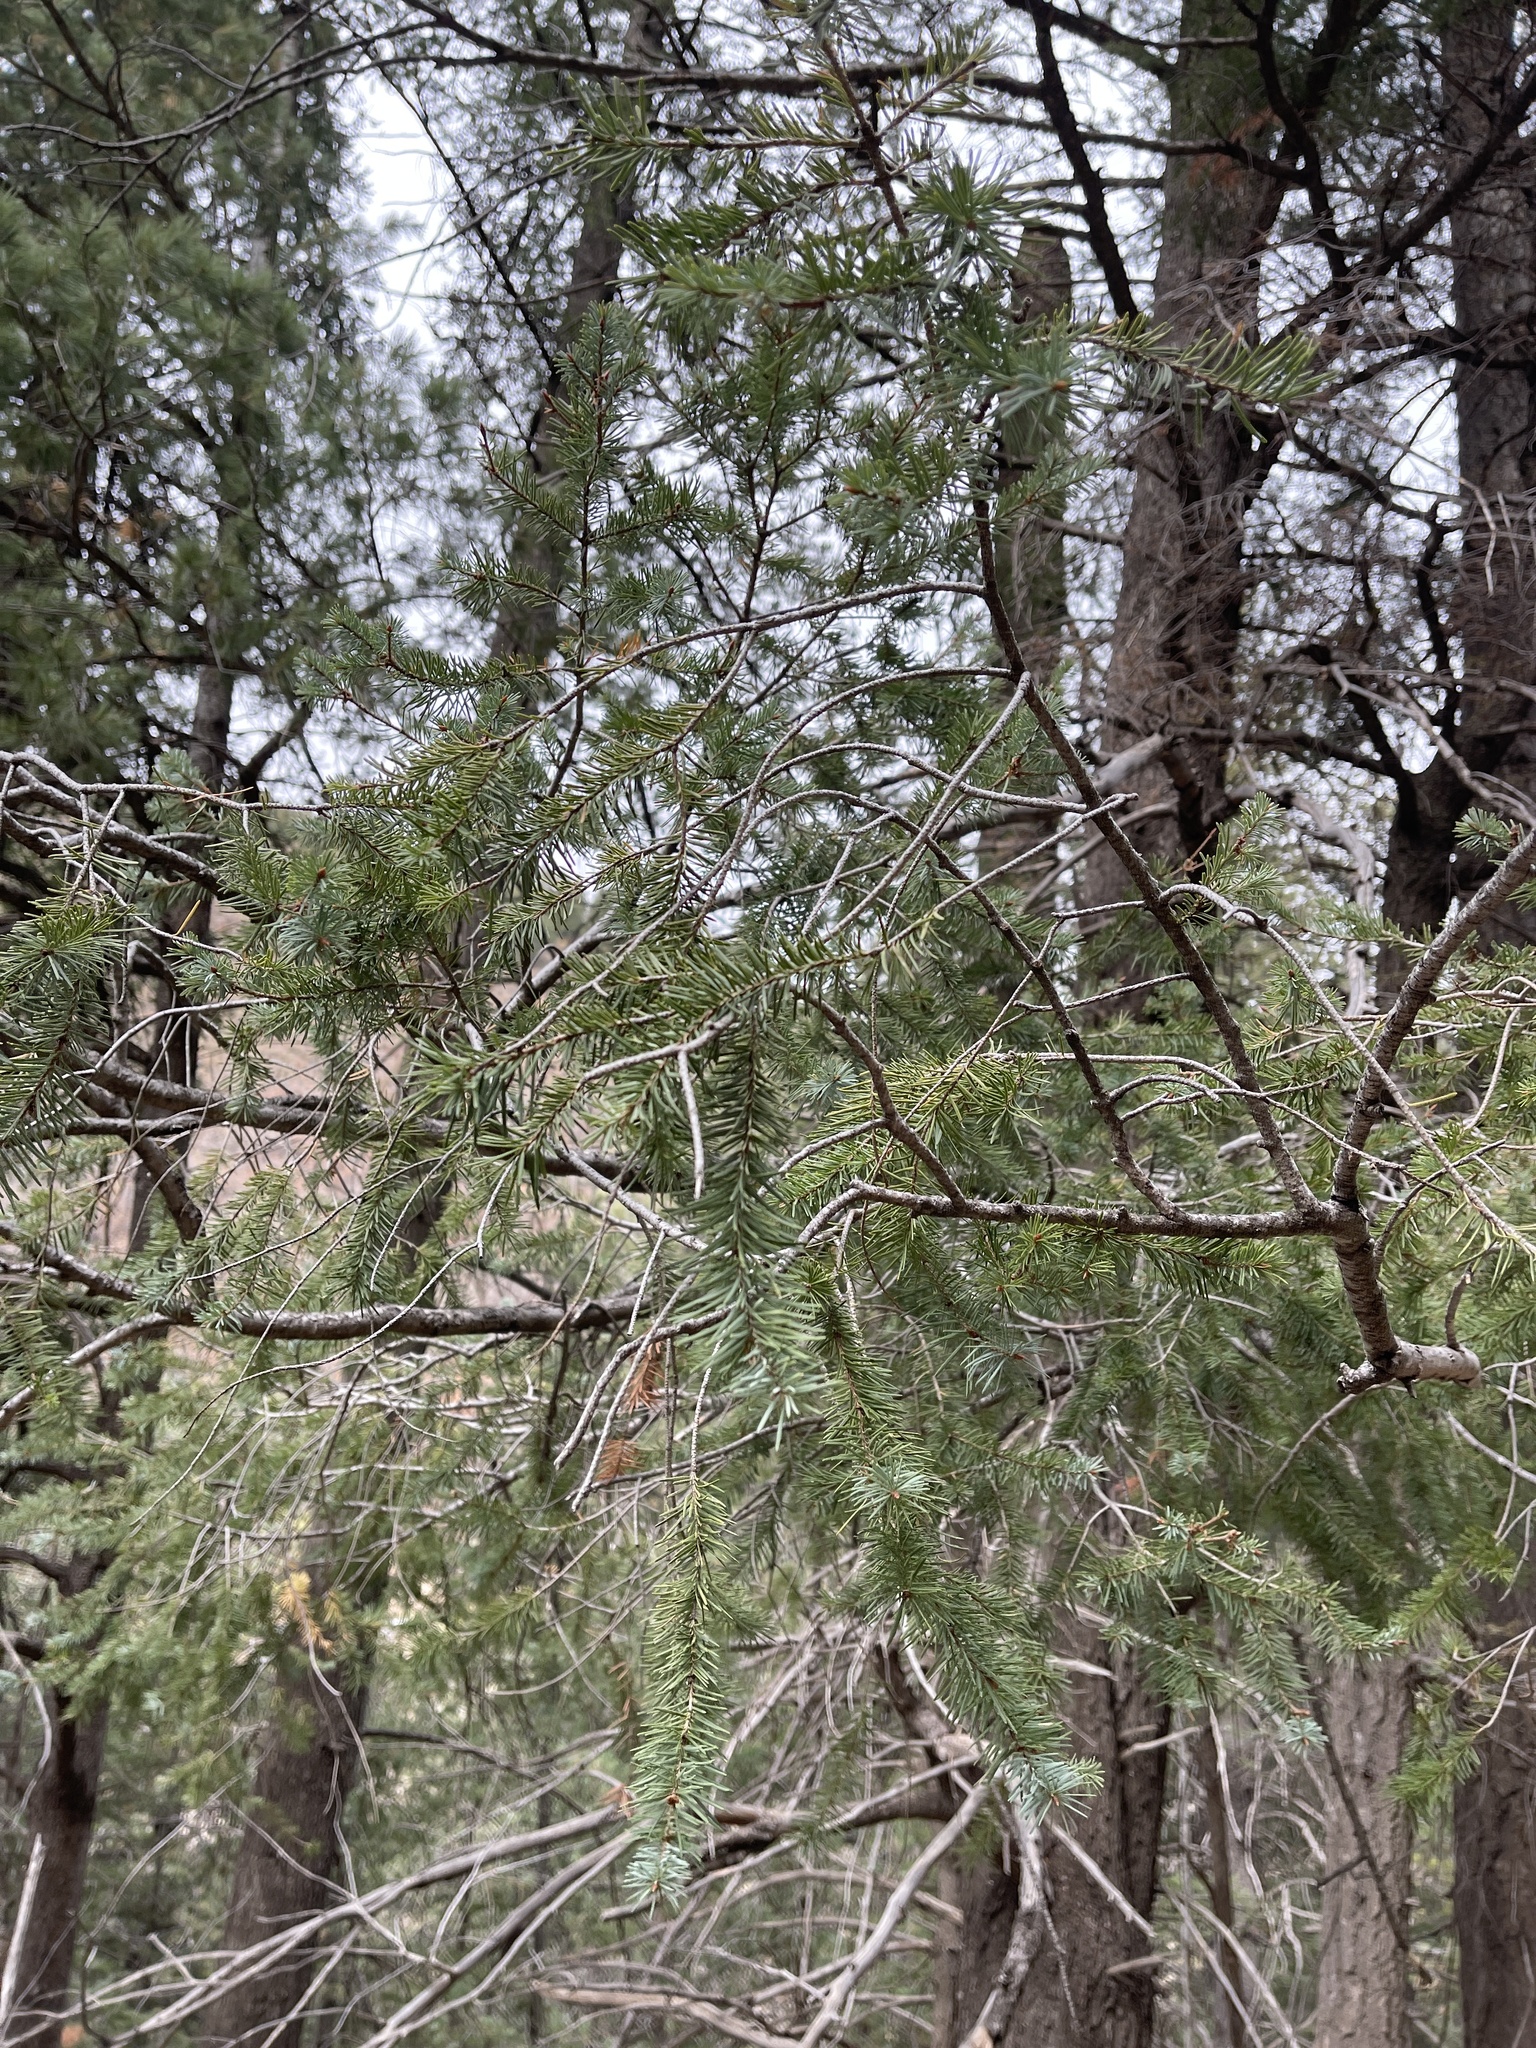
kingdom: Plantae
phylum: Tracheophyta
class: Pinopsida
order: Pinales
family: Pinaceae
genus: Pseudotsuga
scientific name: Pseudotsuga menziesii
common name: Douglas fir
